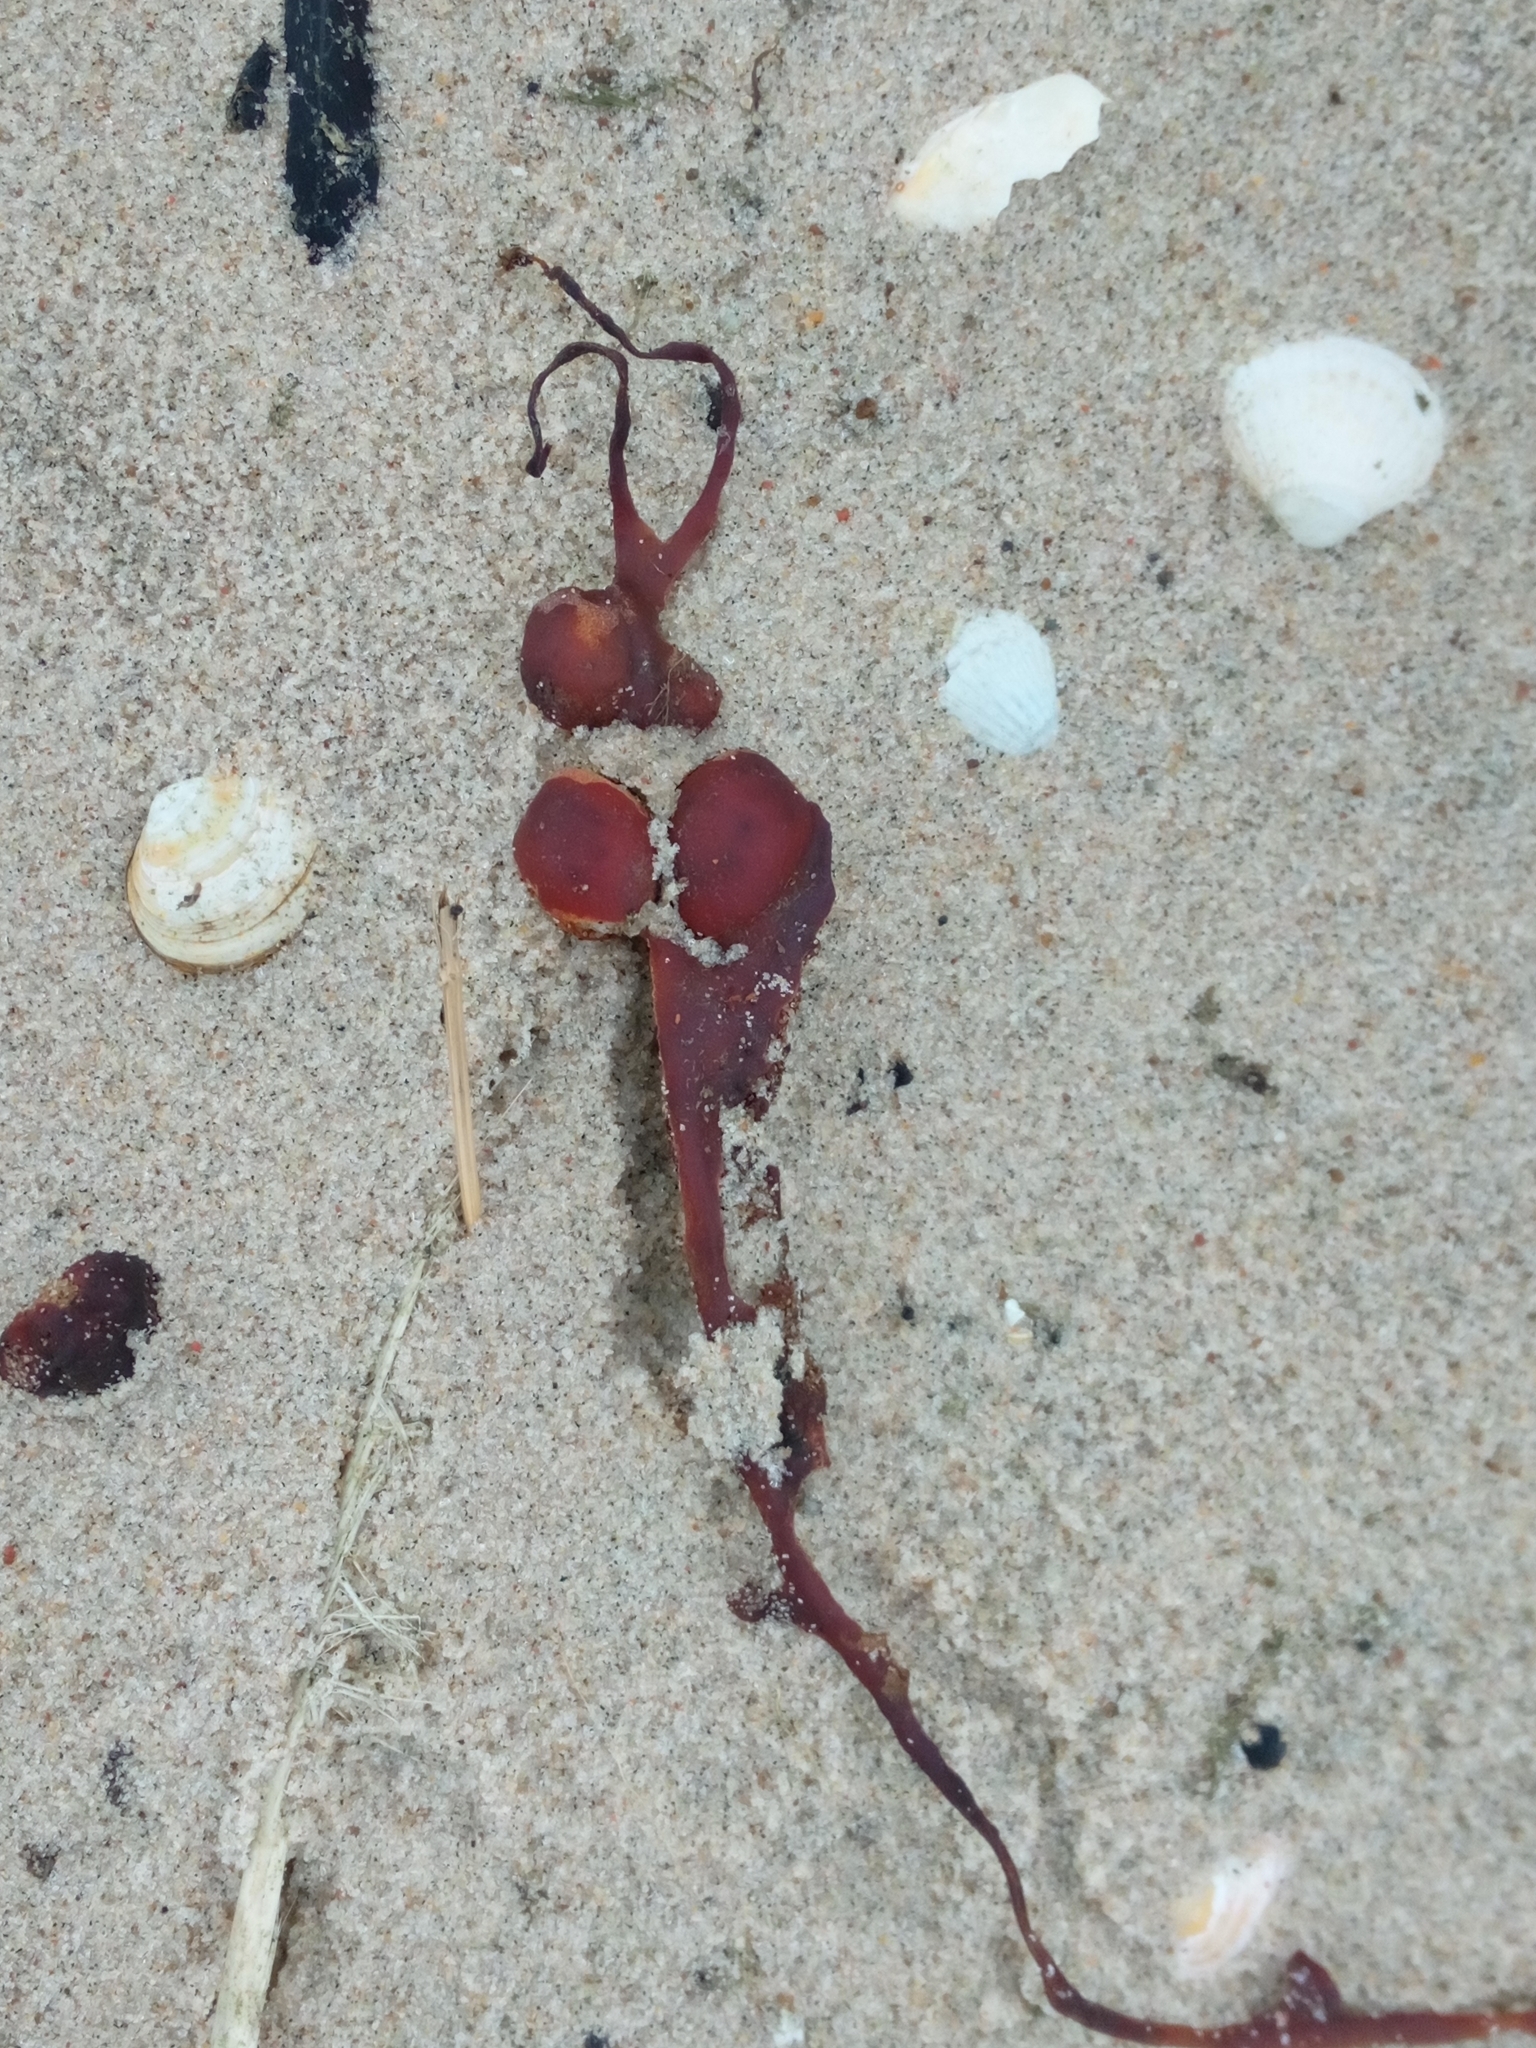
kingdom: Chromista
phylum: Ochrophyta
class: Phaeophyceae
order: Fucales
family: Fucaceae
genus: Fucus
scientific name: Fucus vesiculosus
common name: Bladder wrack
